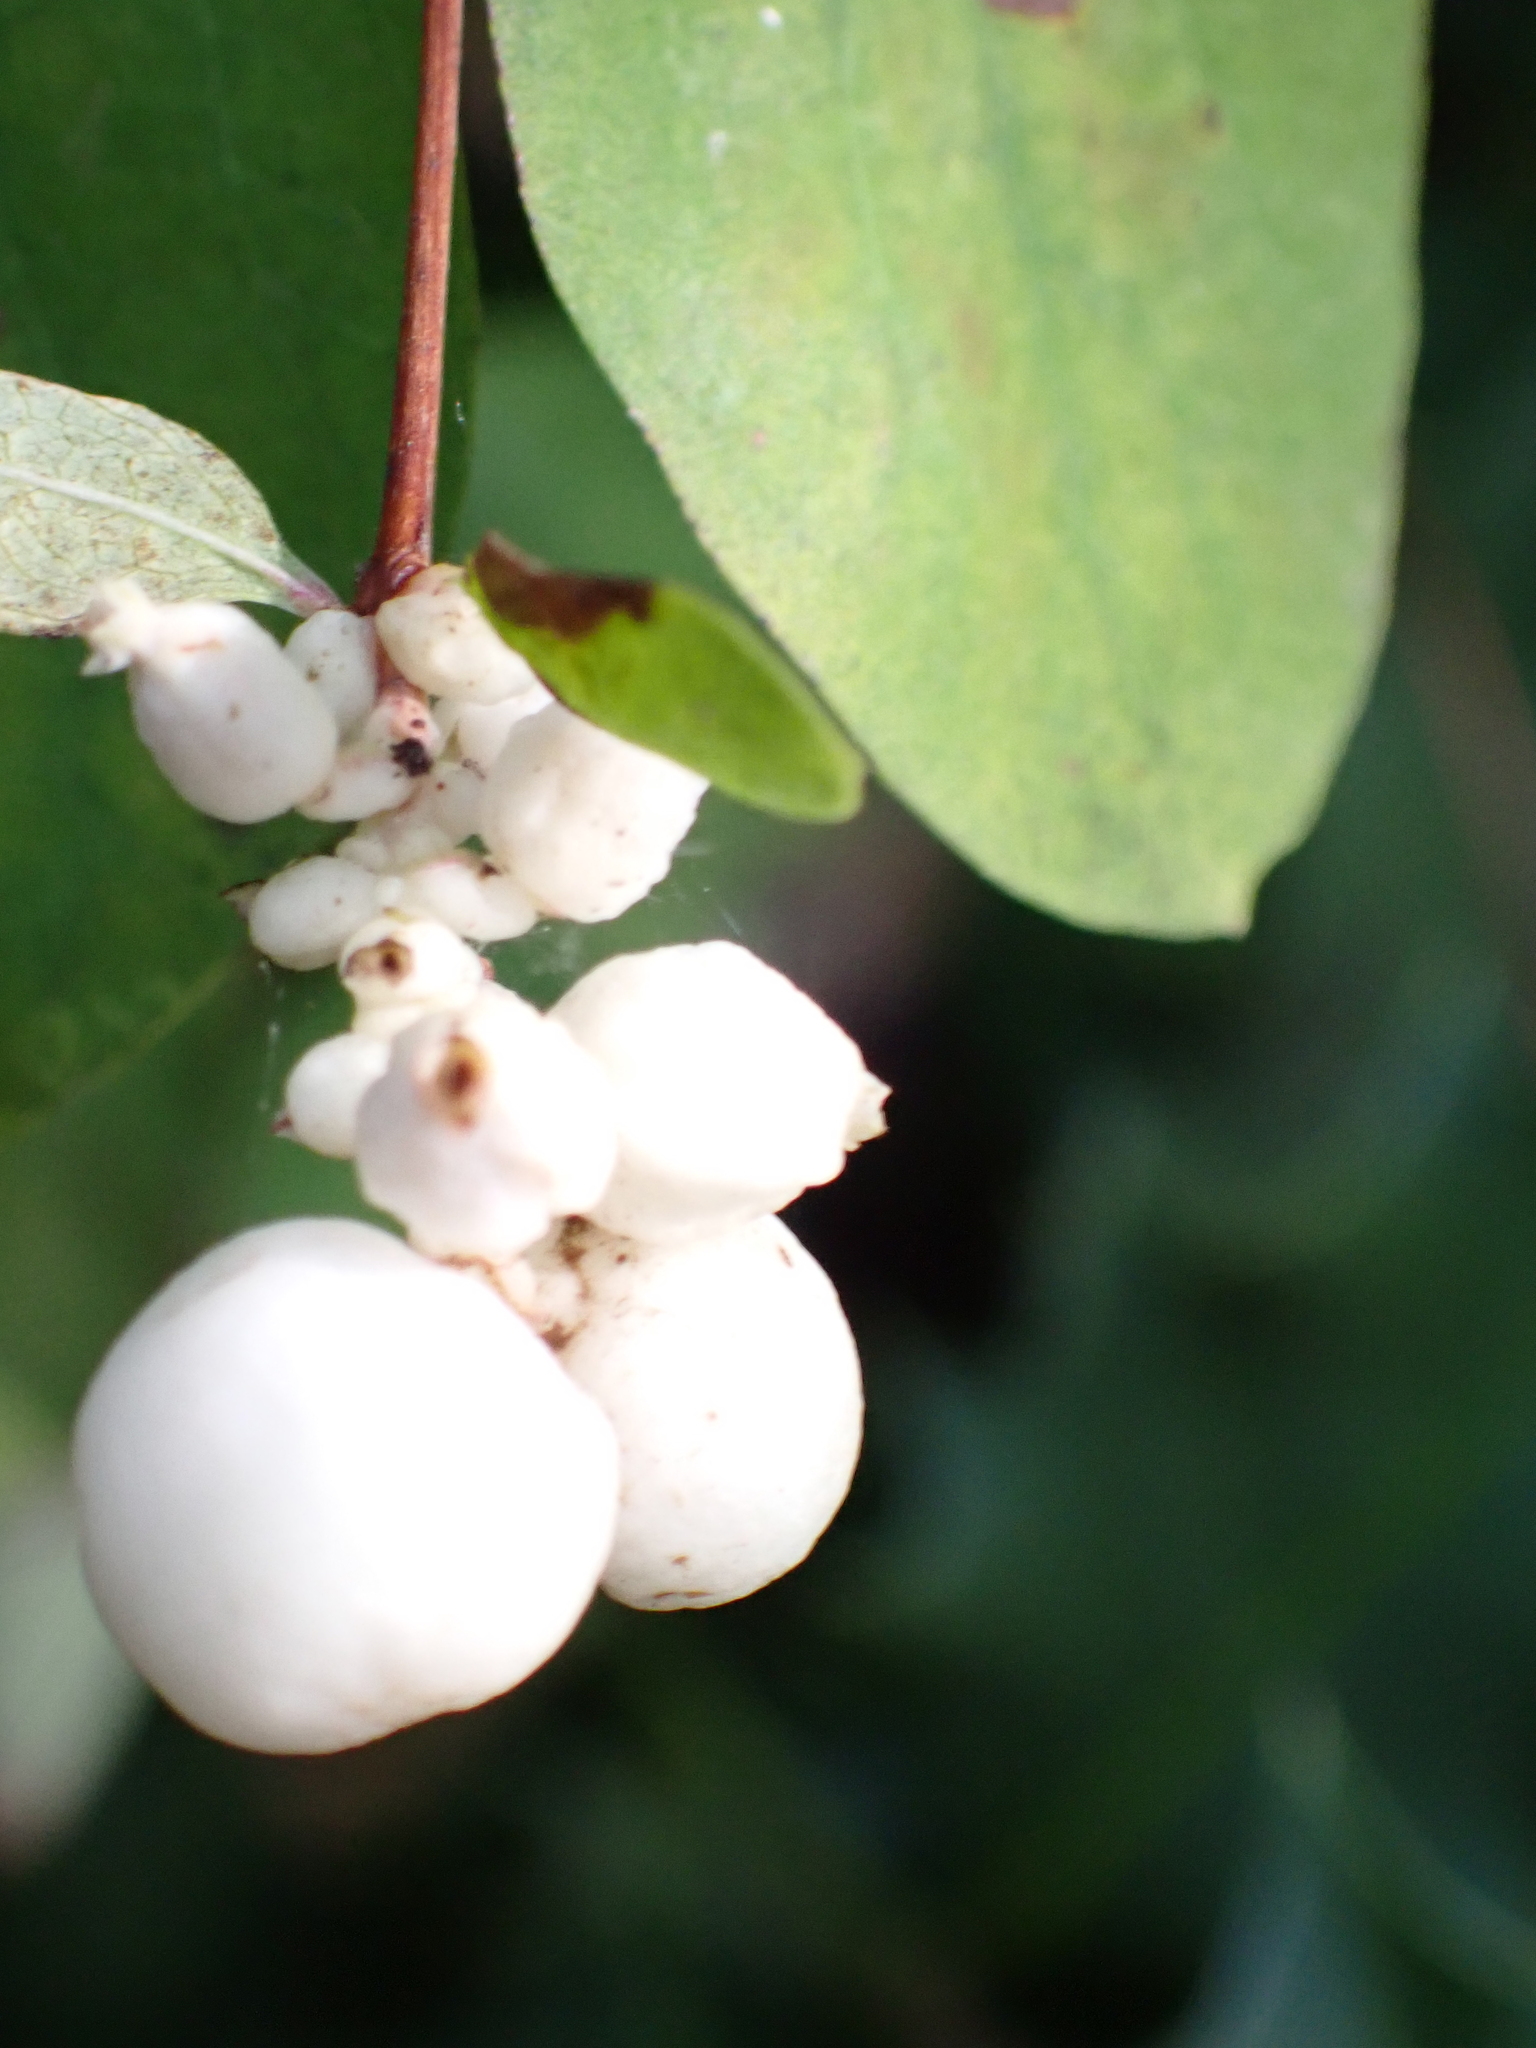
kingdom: Plantae
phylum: Tracheophyta
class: Magnoliopsida
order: Dipsacales
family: Caprifoliaceae
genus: Symphoricarpos
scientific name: Symphoricarpos albus
